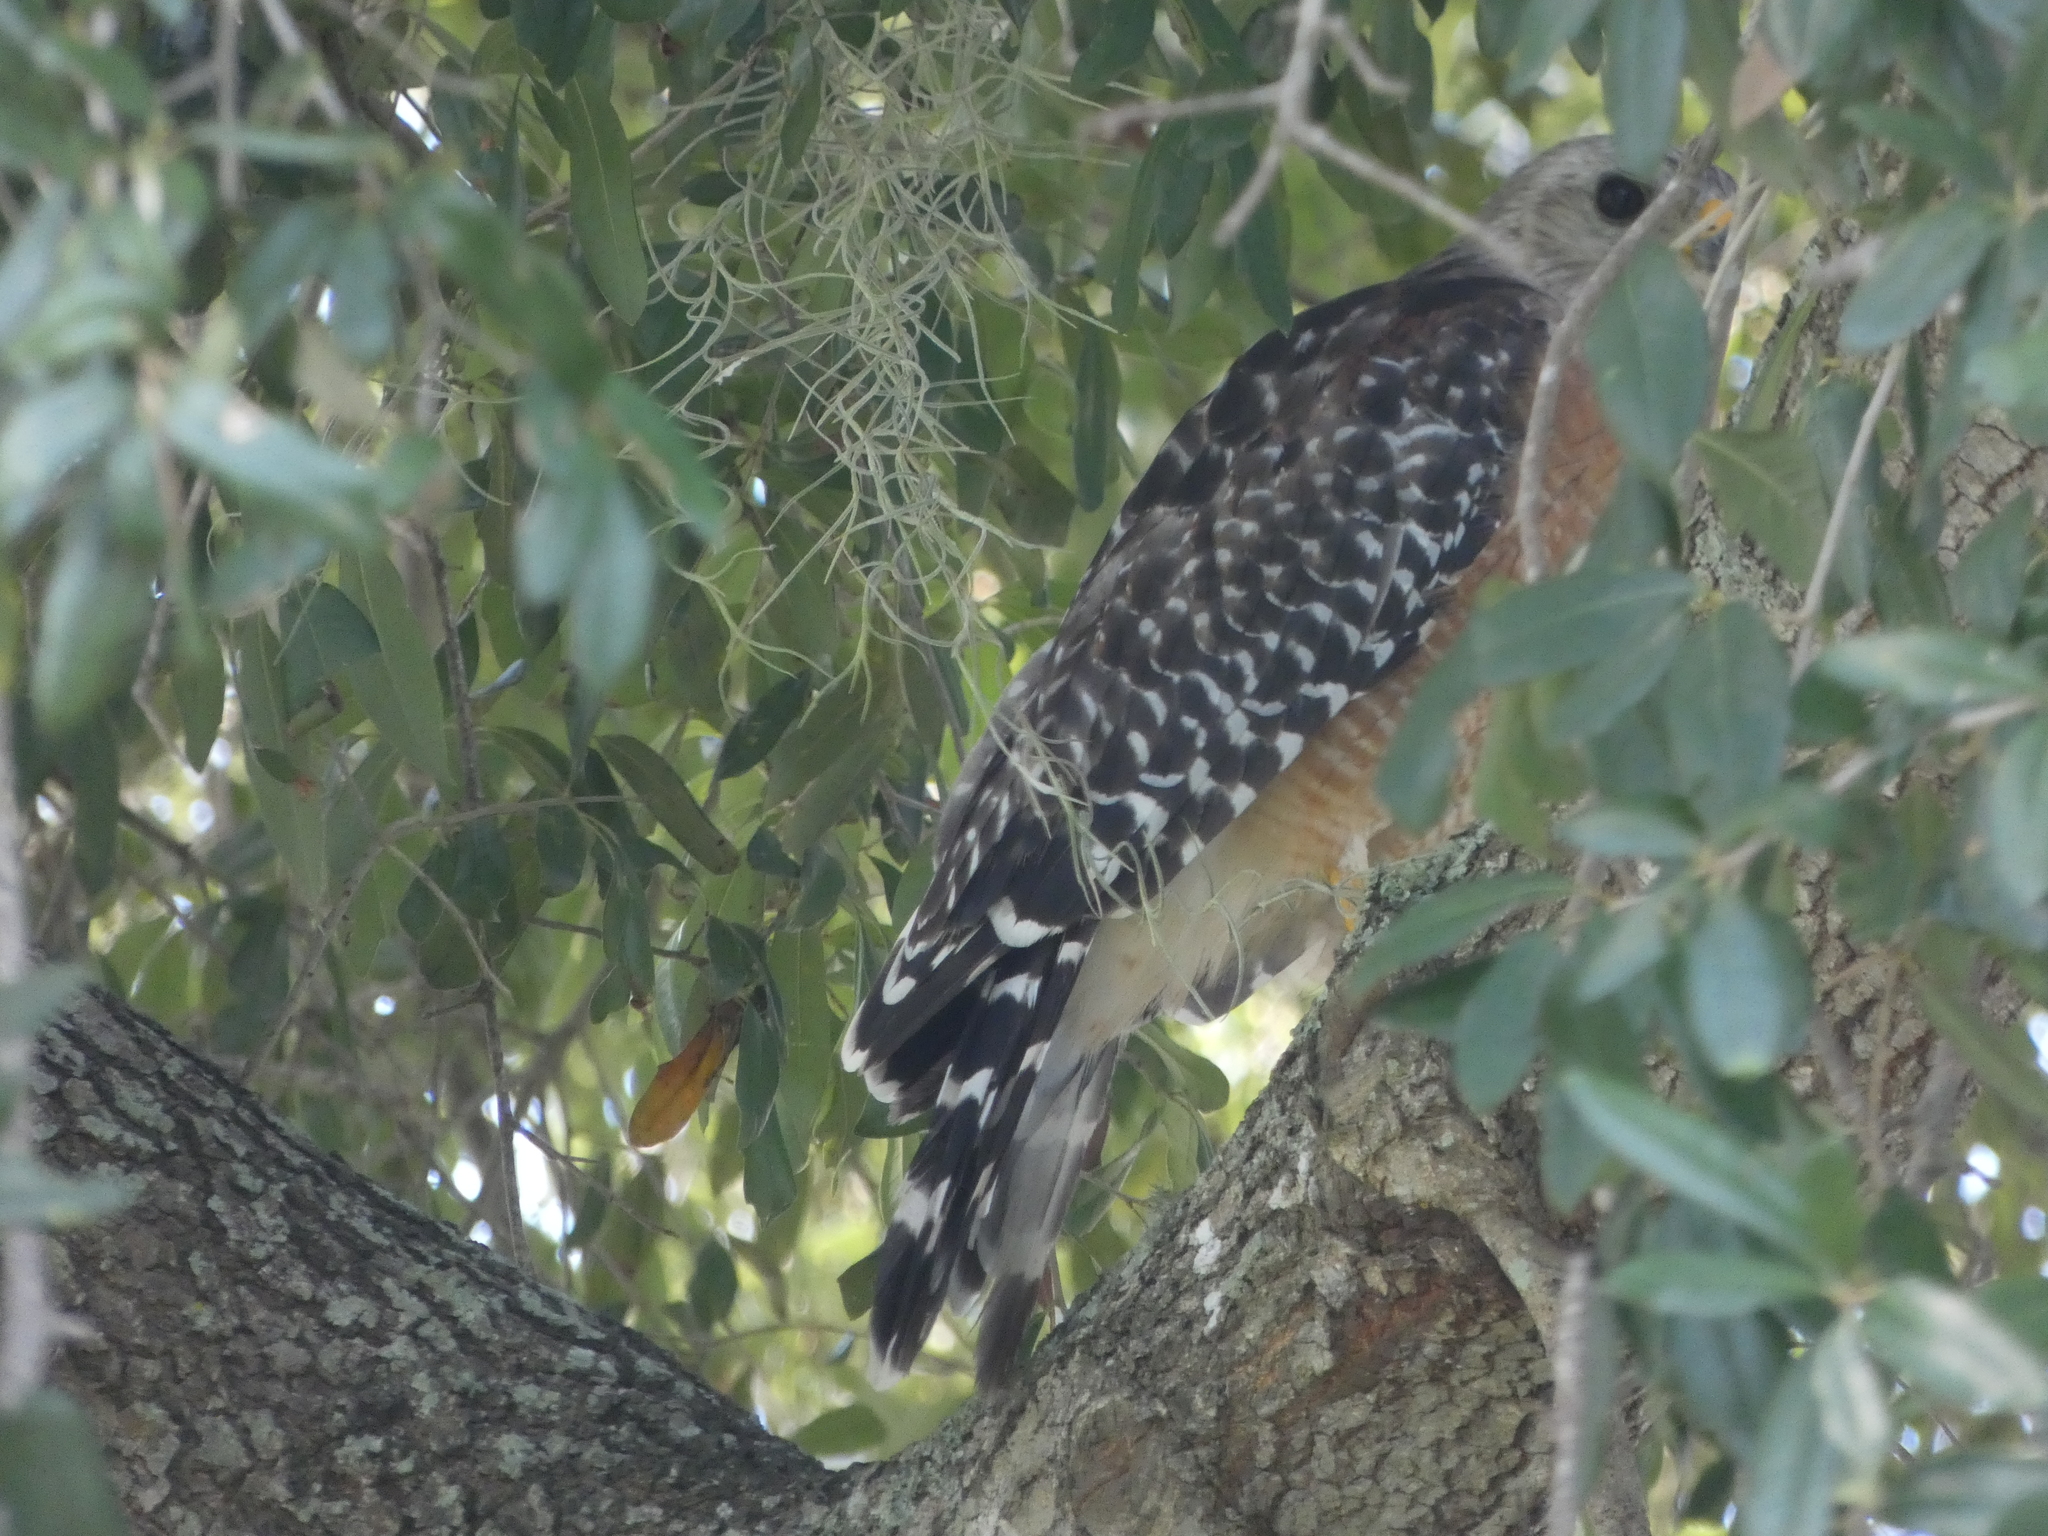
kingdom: Animalia
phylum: Chordata
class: Aves
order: Accipitriformes
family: Accipitridae
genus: Buteo
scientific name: Buteo lineatus
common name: Red-shouldered hawk
